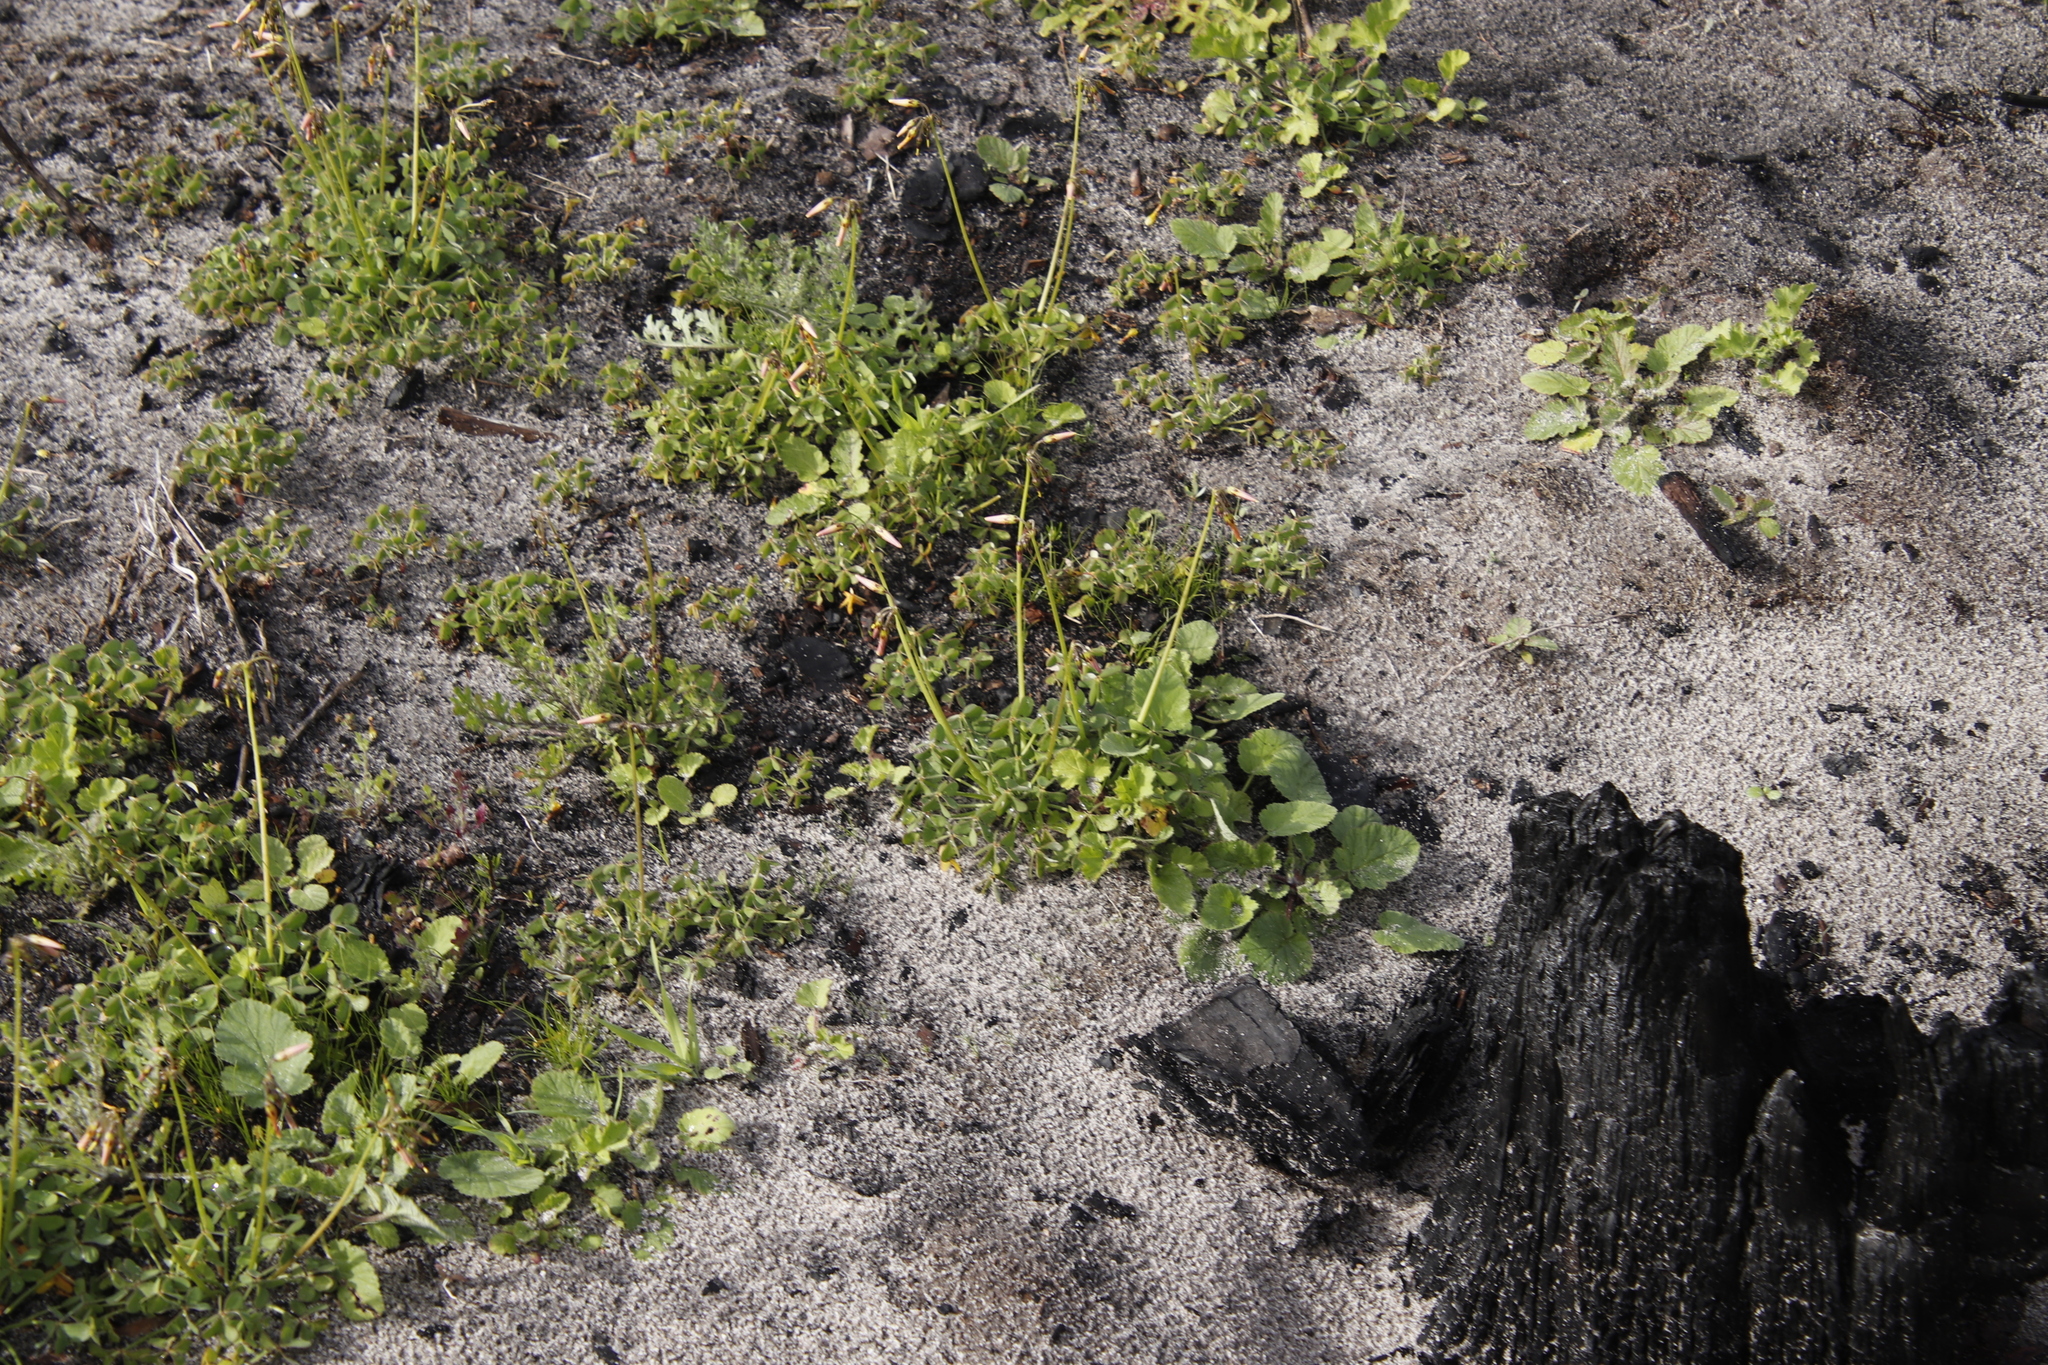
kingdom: Plantae
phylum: Tracheophyta
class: Magnoliopsida
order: Oxalidales
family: Oxalidaceae
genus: Oxalis
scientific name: Oxalis pes-caprae
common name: Bermuda-buttercup
